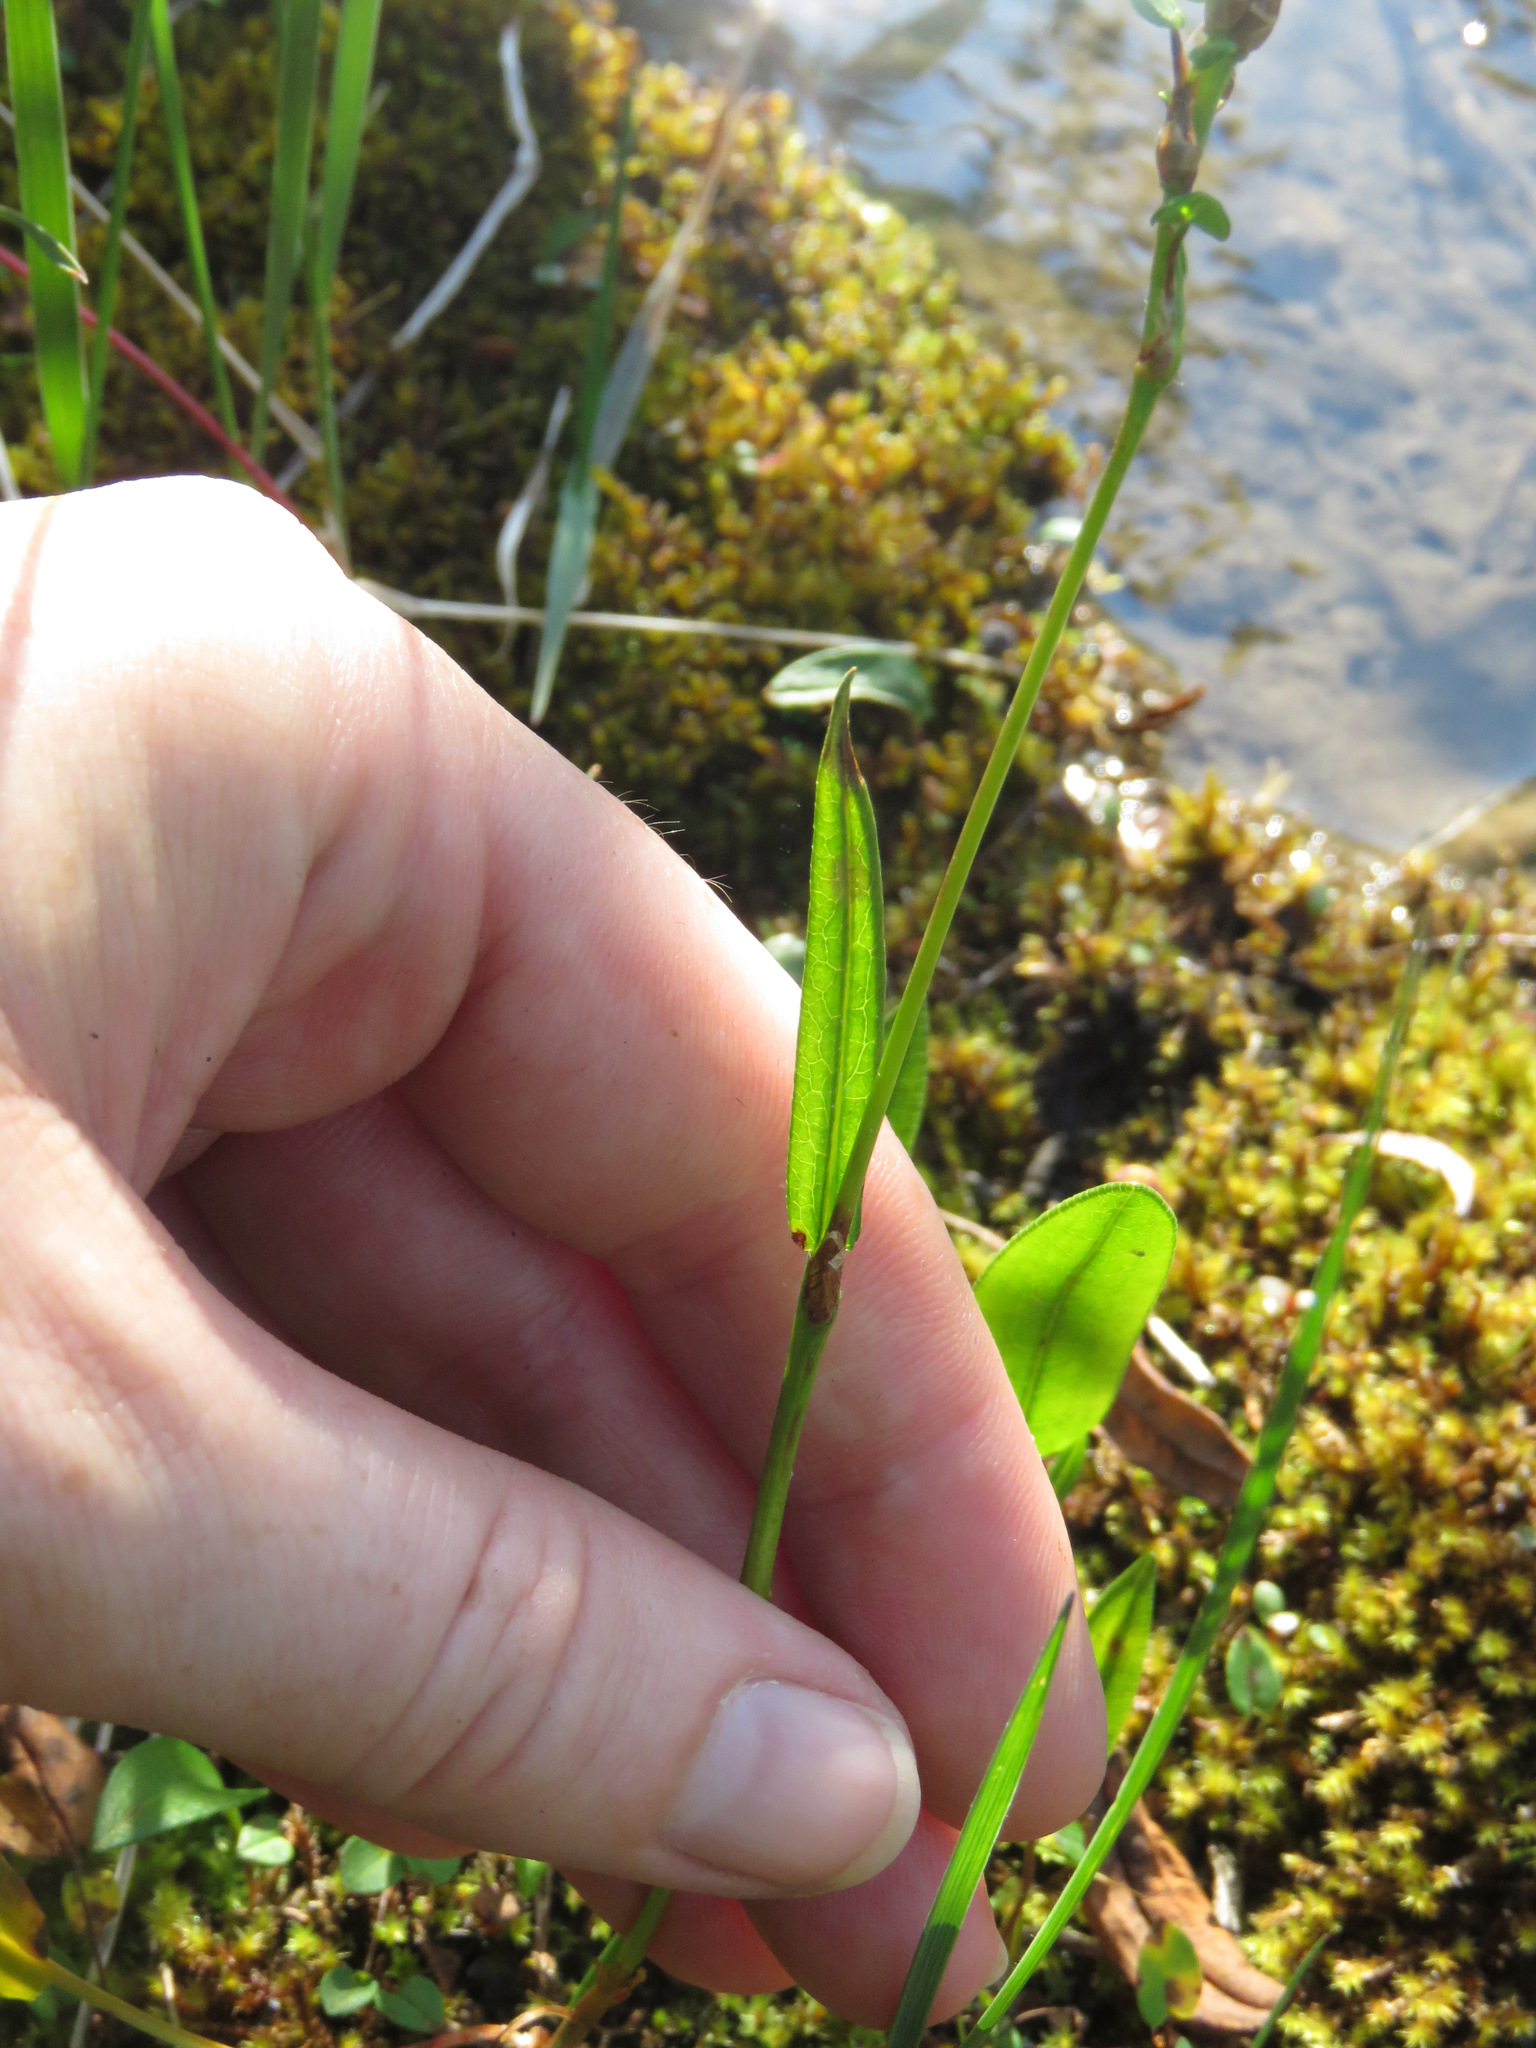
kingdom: Plantae
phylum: Tracheophyta
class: Magnoliopsida
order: Caryophyllales
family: Polygonaceae
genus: Bistorta
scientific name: Bistorta vivipara
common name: Alpine bistort
